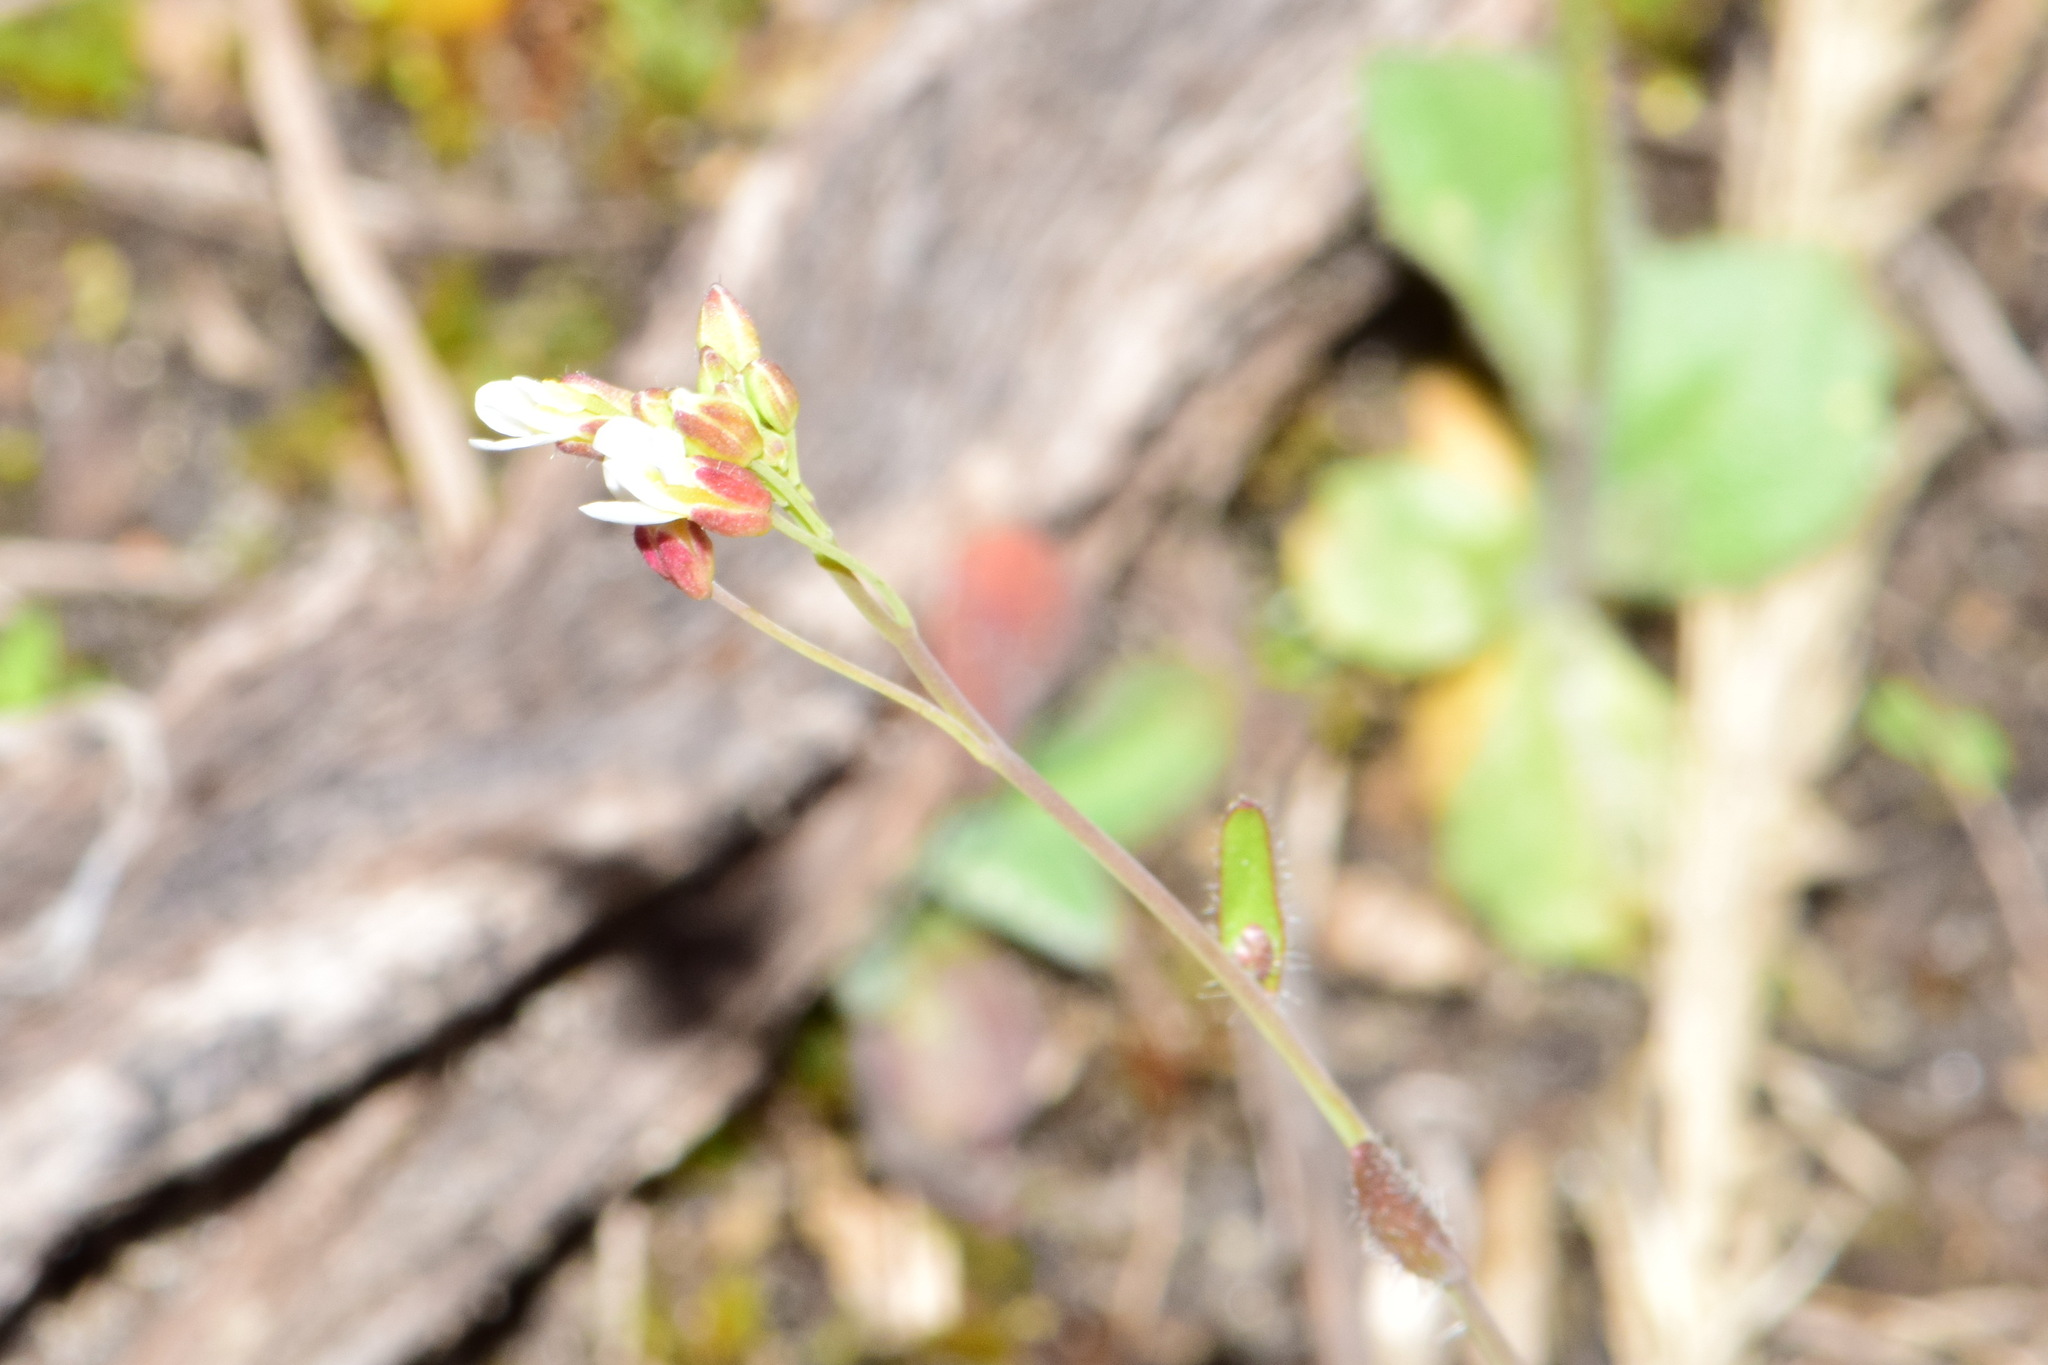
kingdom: Plantae
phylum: Tracheophyta
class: Magnoliopsida
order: Brassicales
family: Brassicaceae
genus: Arabidopsis
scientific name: Arabidopsis thaliana
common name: Thale cress
